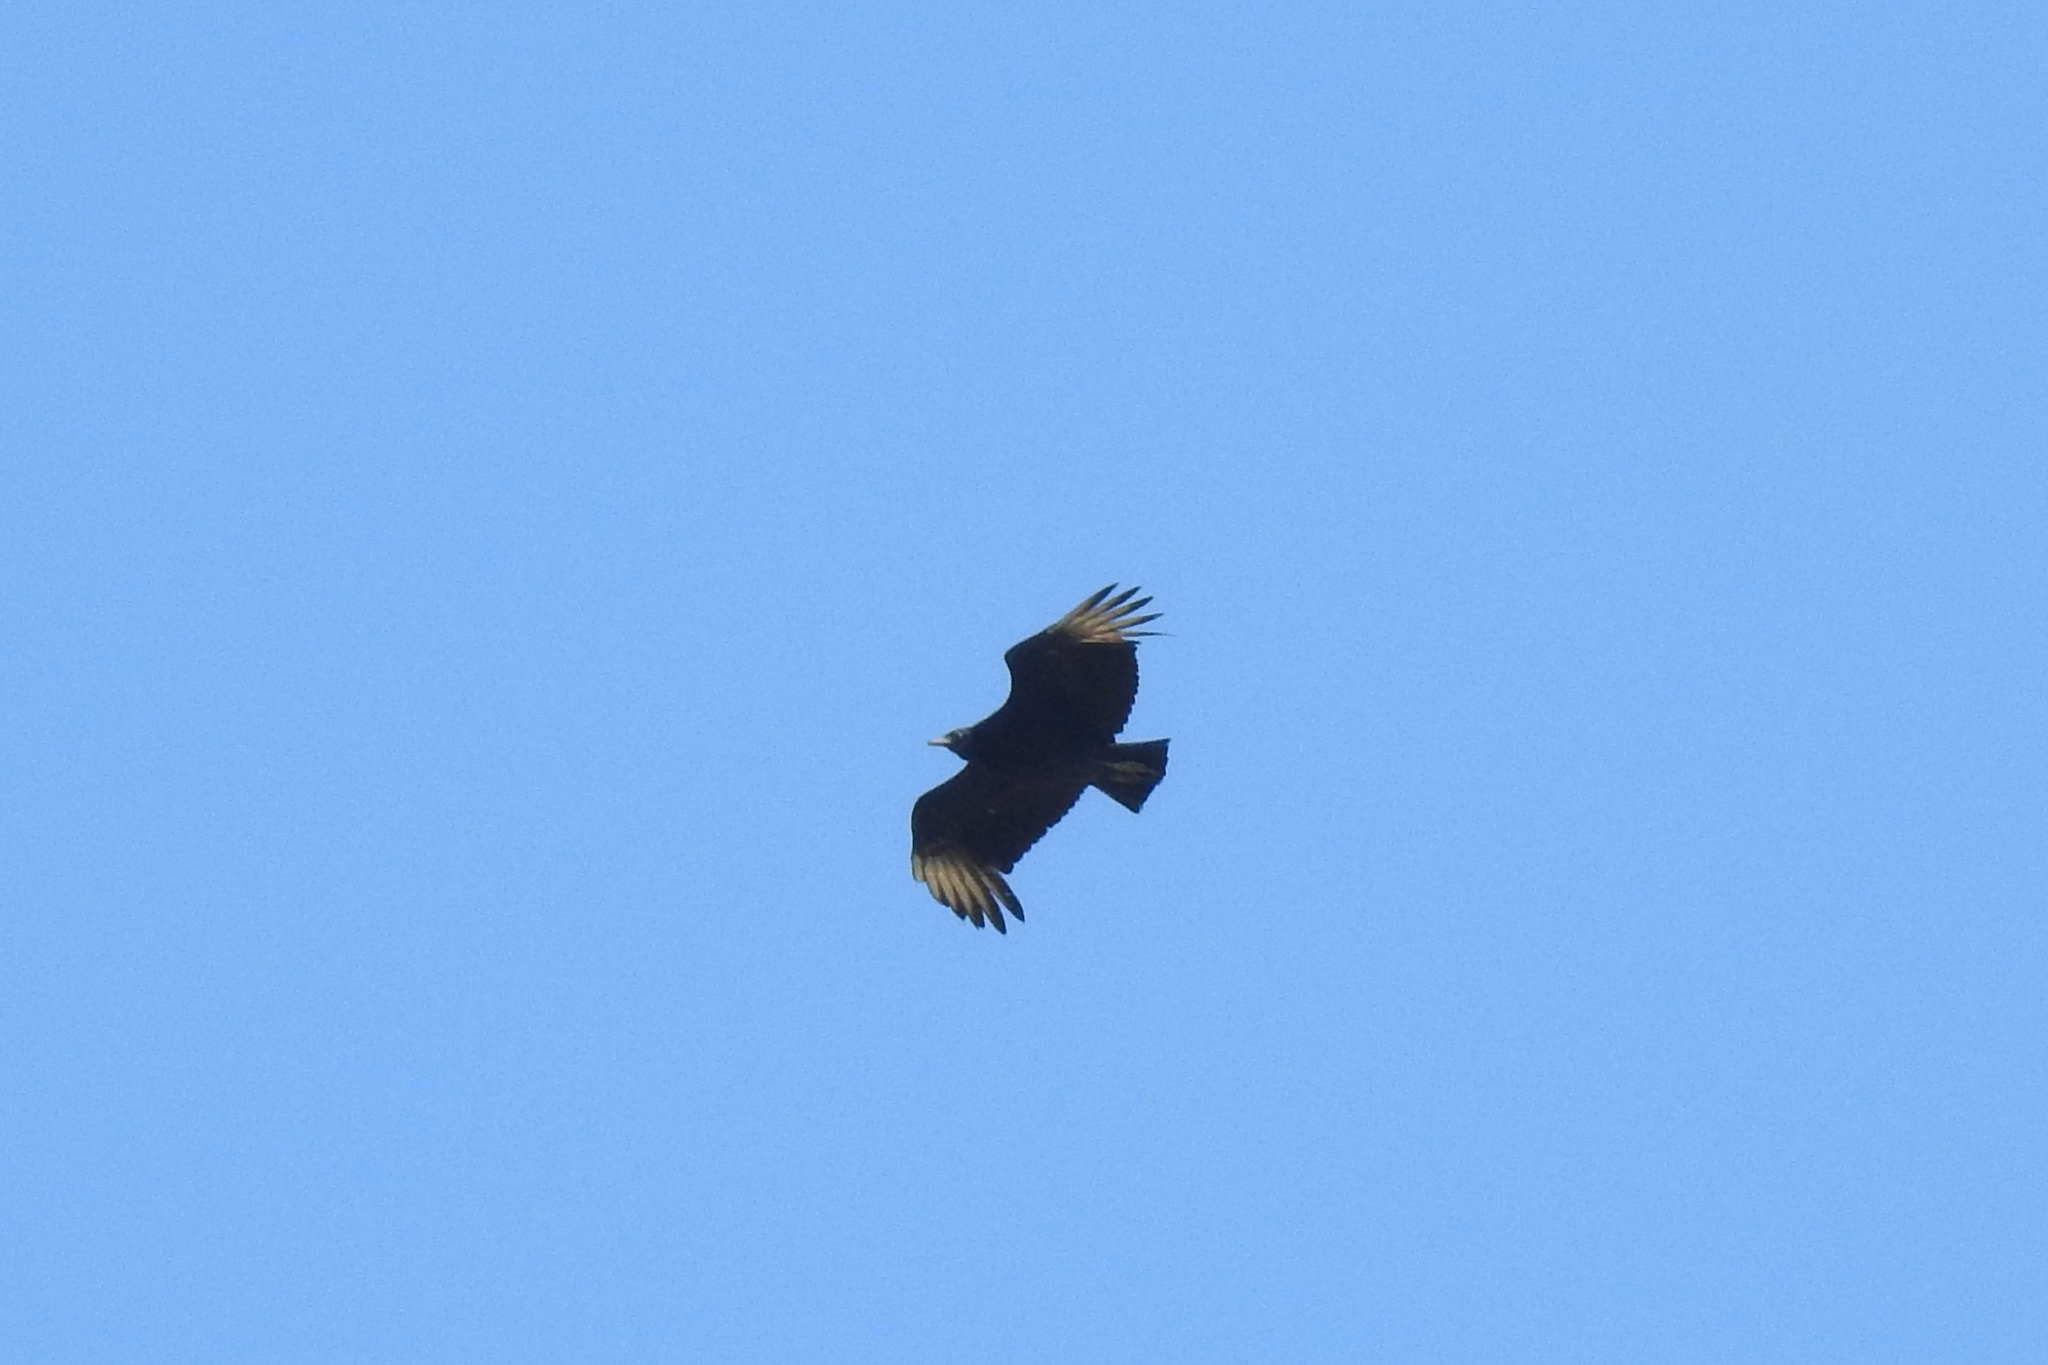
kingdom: Animalia
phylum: Chordata
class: Aves
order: Accipitriformes
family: Cathartidae
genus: Coragyps
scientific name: Coragyps atratus
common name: Black vulture
